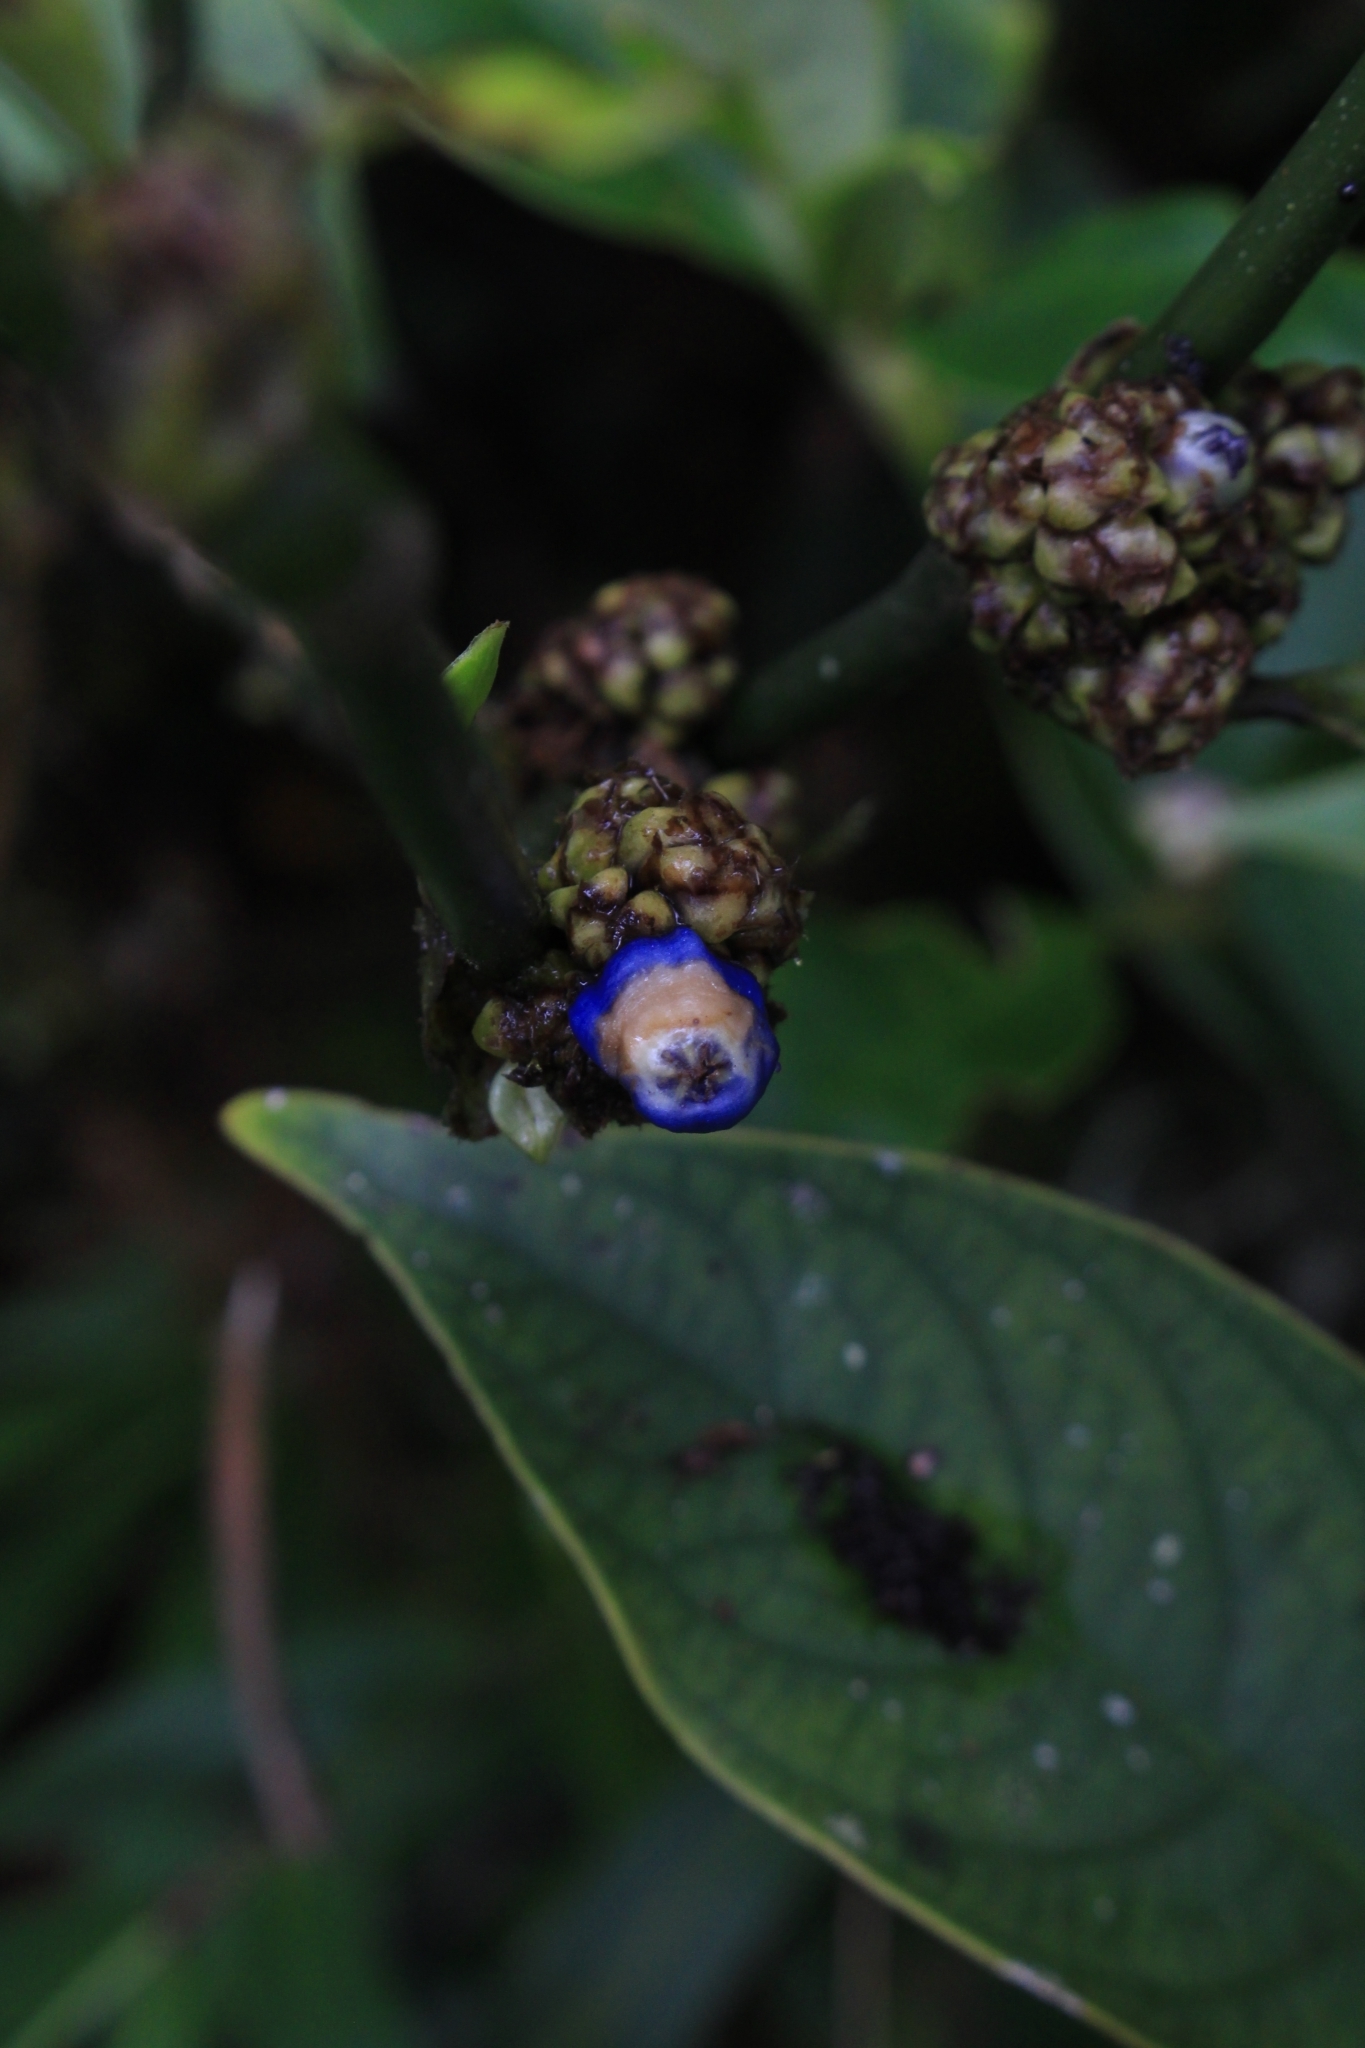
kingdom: Plantae
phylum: Tracheophyta
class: Magnoliopsida
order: Gentianales
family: Rubiaceae
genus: Palicourea
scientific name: Palicourea axillaris
